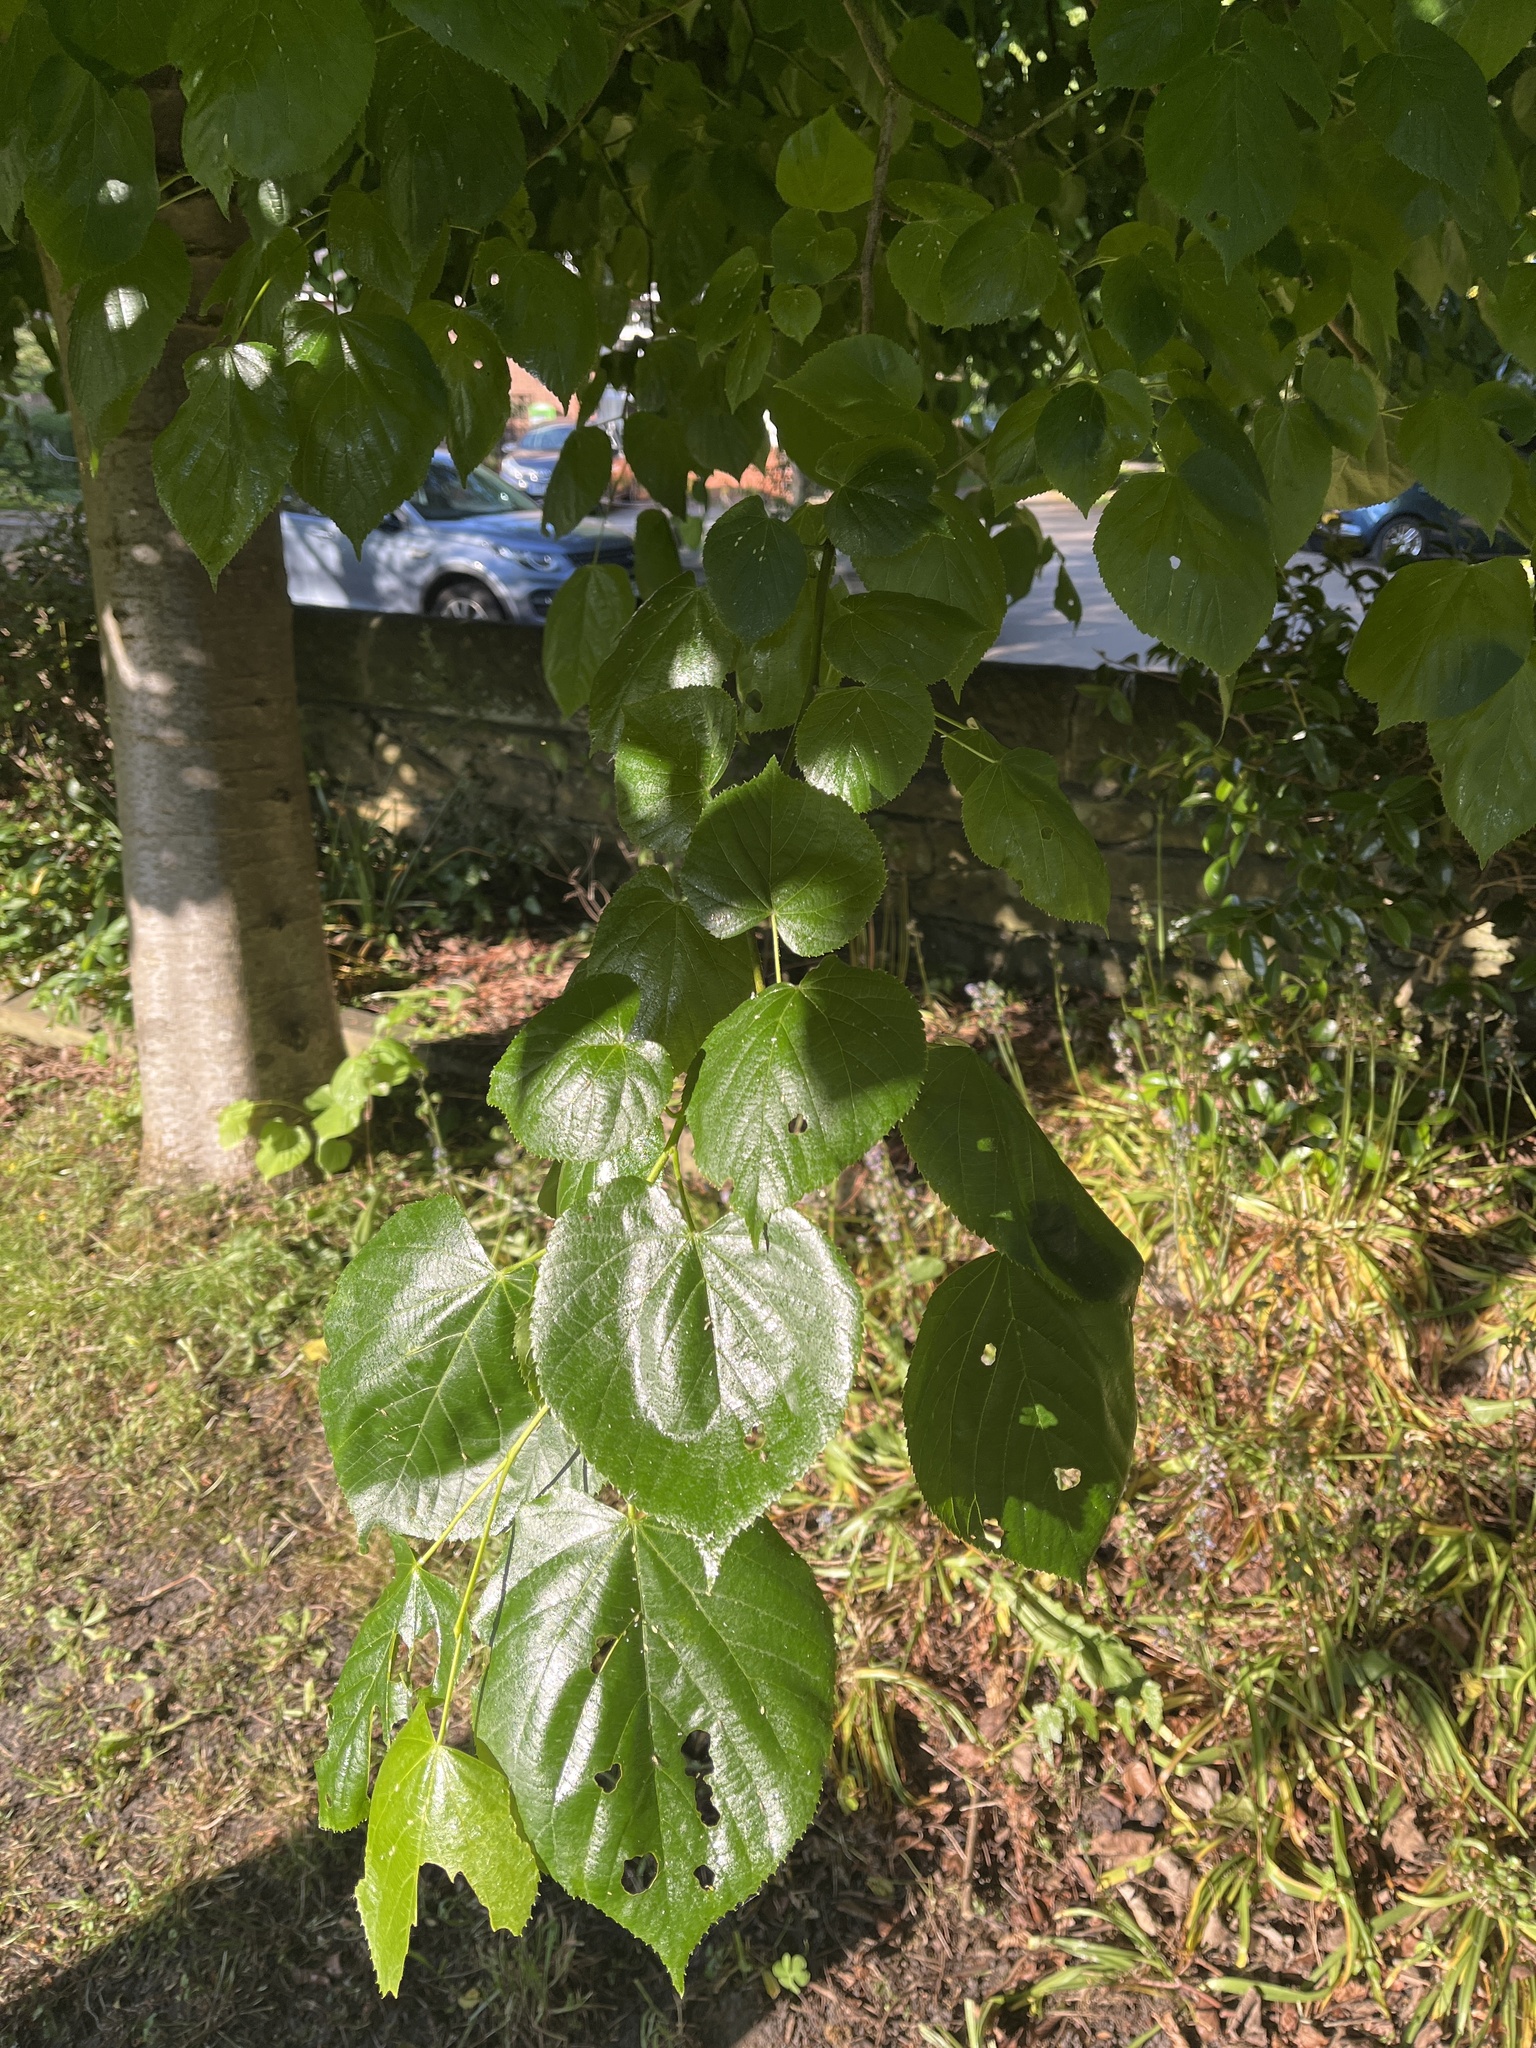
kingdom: Plantae
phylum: Tracheophyta
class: Magnoliopsida
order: Malvales
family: Malvaceae
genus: Tilia
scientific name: Tilia europaea
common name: European linden
